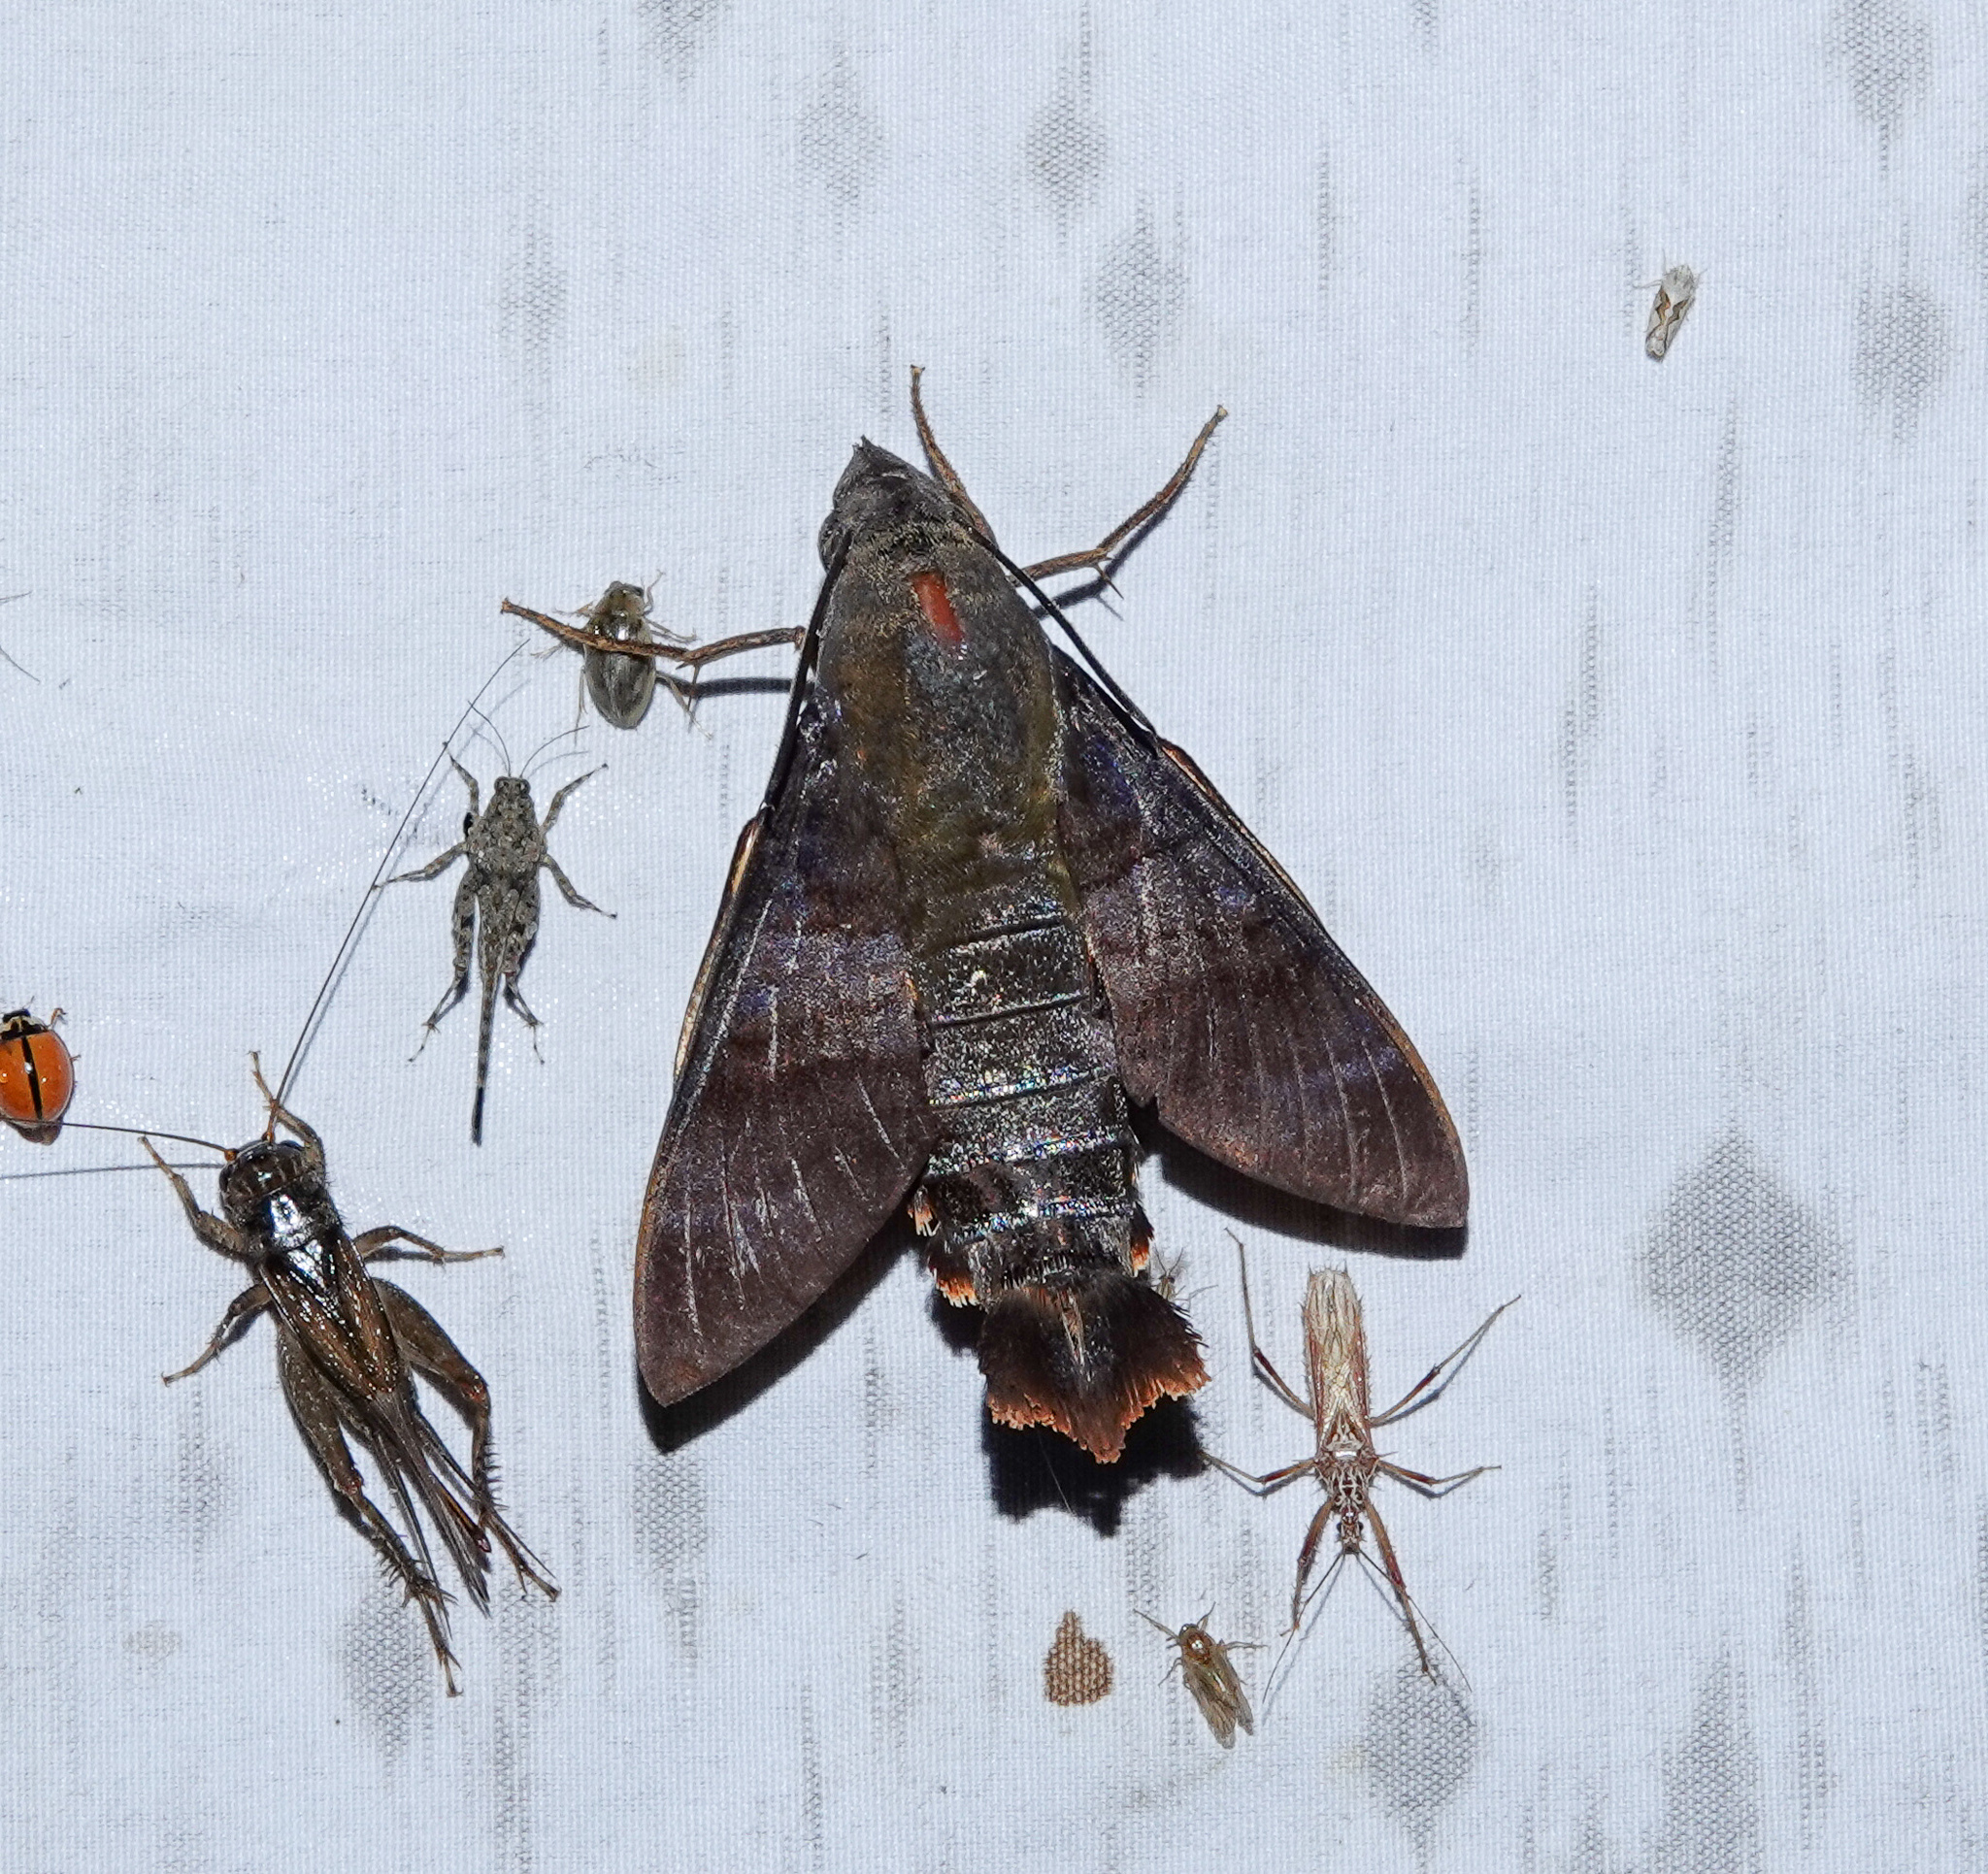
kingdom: Animalia
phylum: Arthropoda
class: Insecta
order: Lepidoptera
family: Sphingidae
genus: Macroglossum
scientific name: Macroglossum corythus
